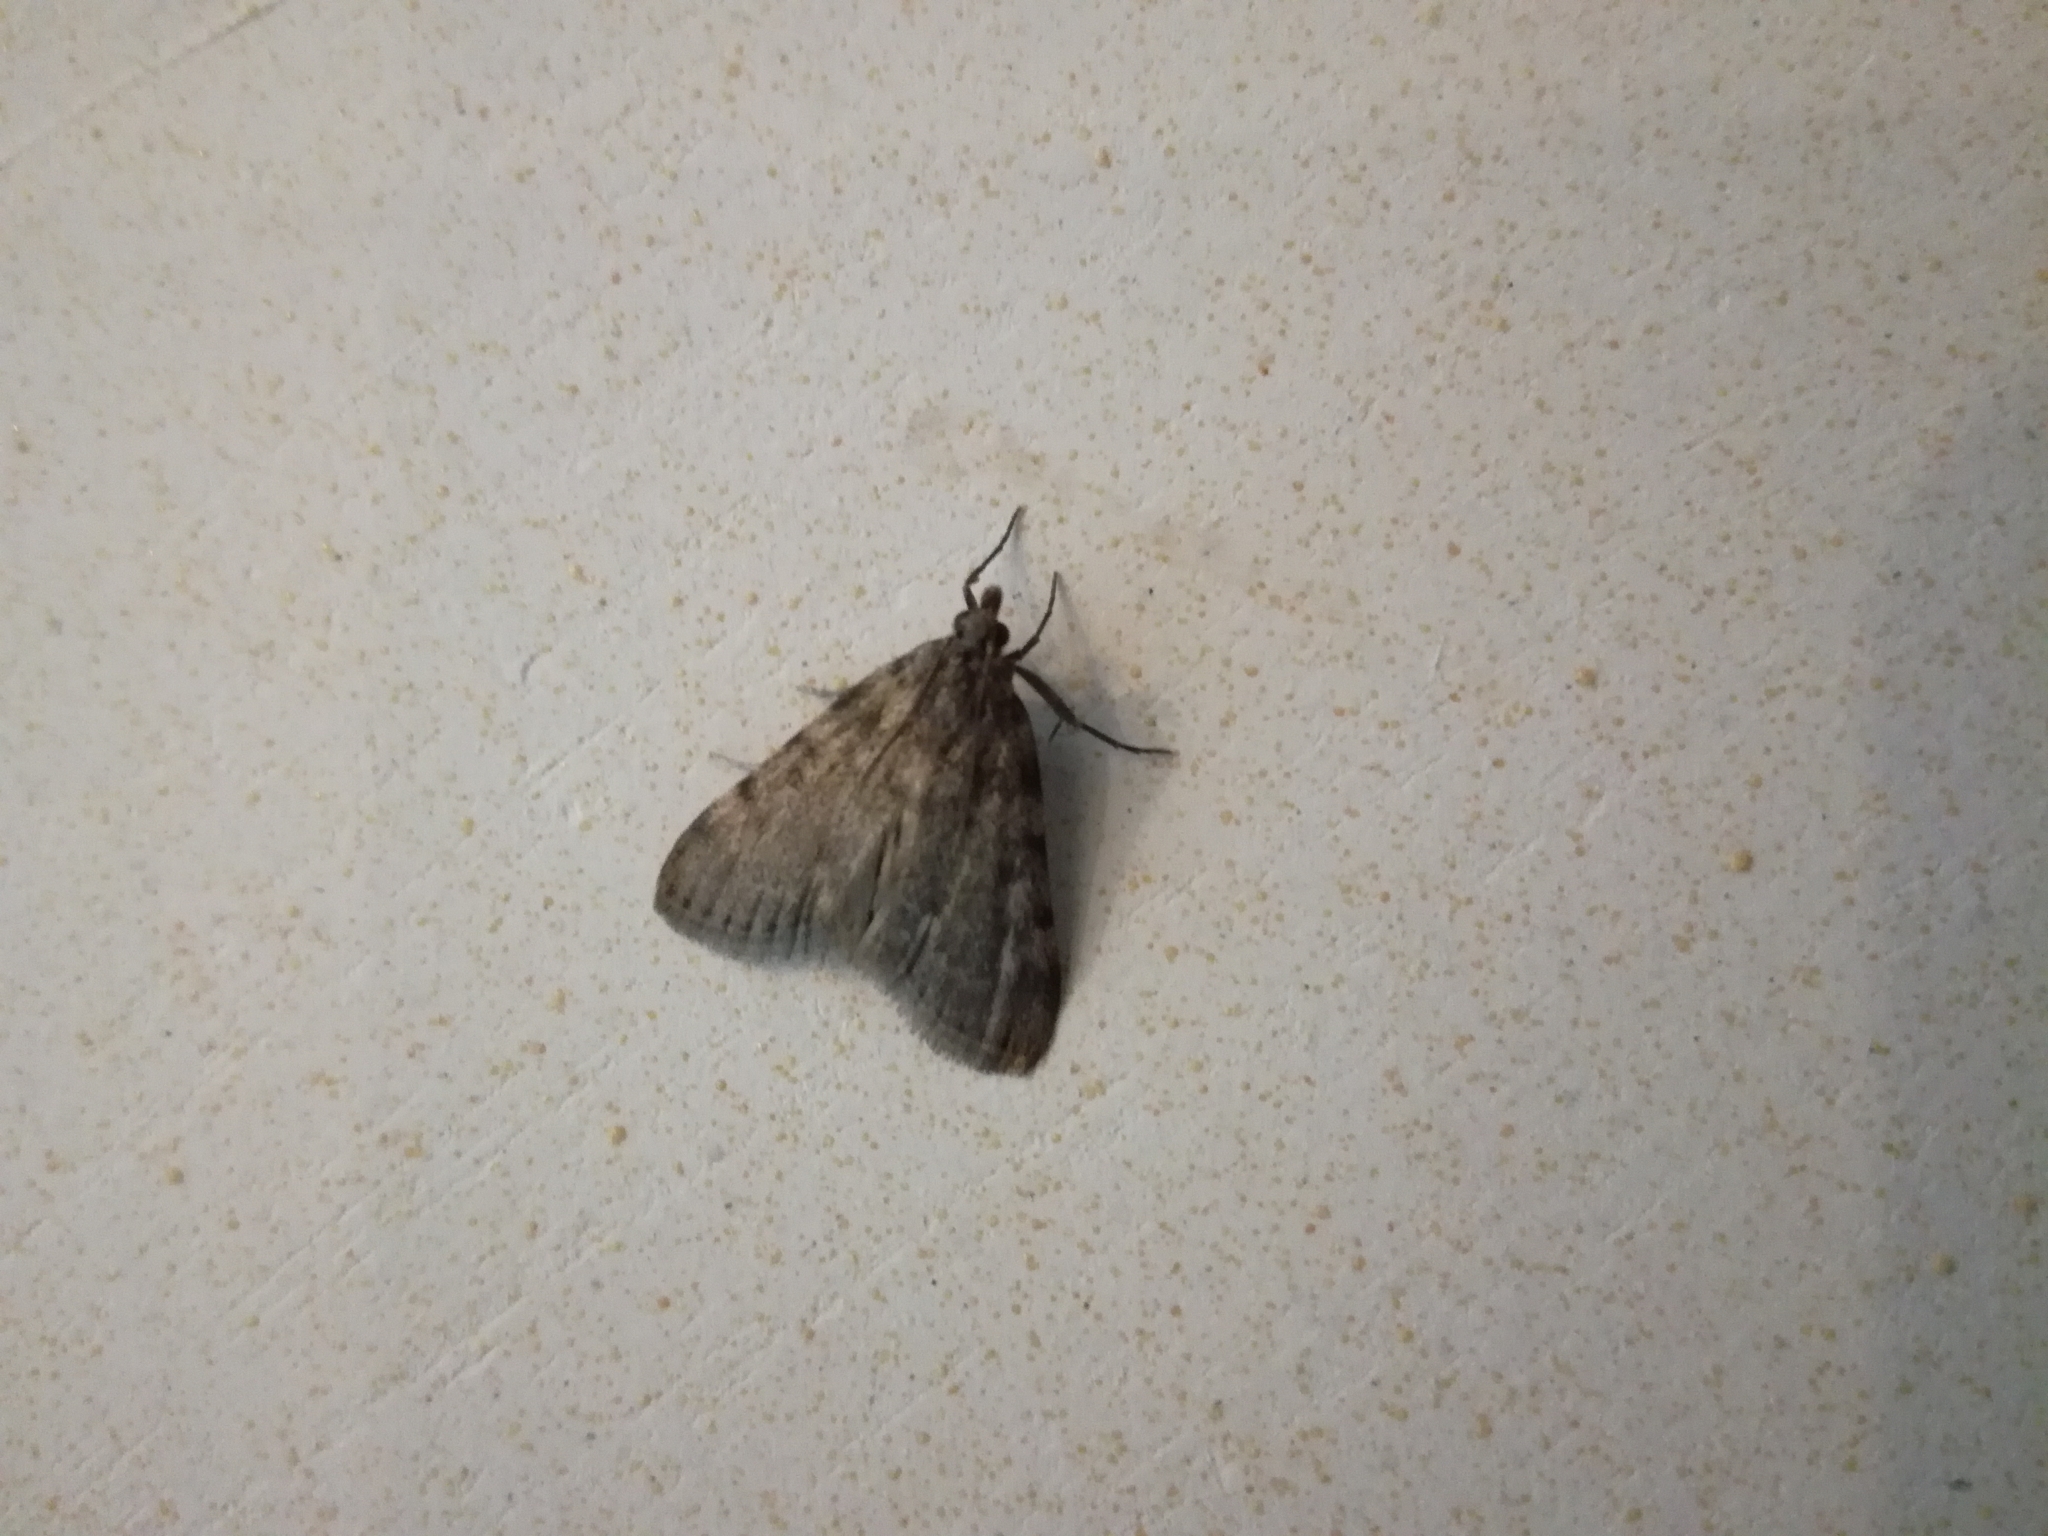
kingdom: Animalia
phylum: Arthropoda
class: Insecta
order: Lepidoptera
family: Pyralidae
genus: Aglossa
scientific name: Aglossa pinguinalis
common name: Large tabby
